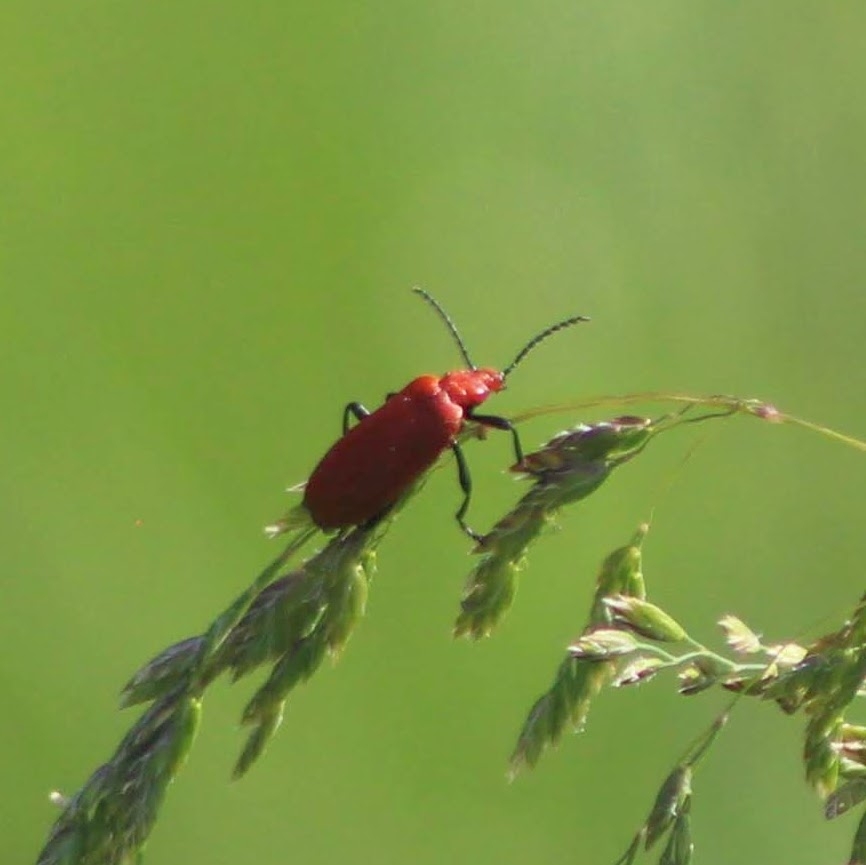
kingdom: Animalia
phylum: Arthropoda
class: Insecta
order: Coleoptera
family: Pyrochroidae
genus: Pyrochroa
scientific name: Pyrochroa serraticornis
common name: Red-headed cardinal beetle
